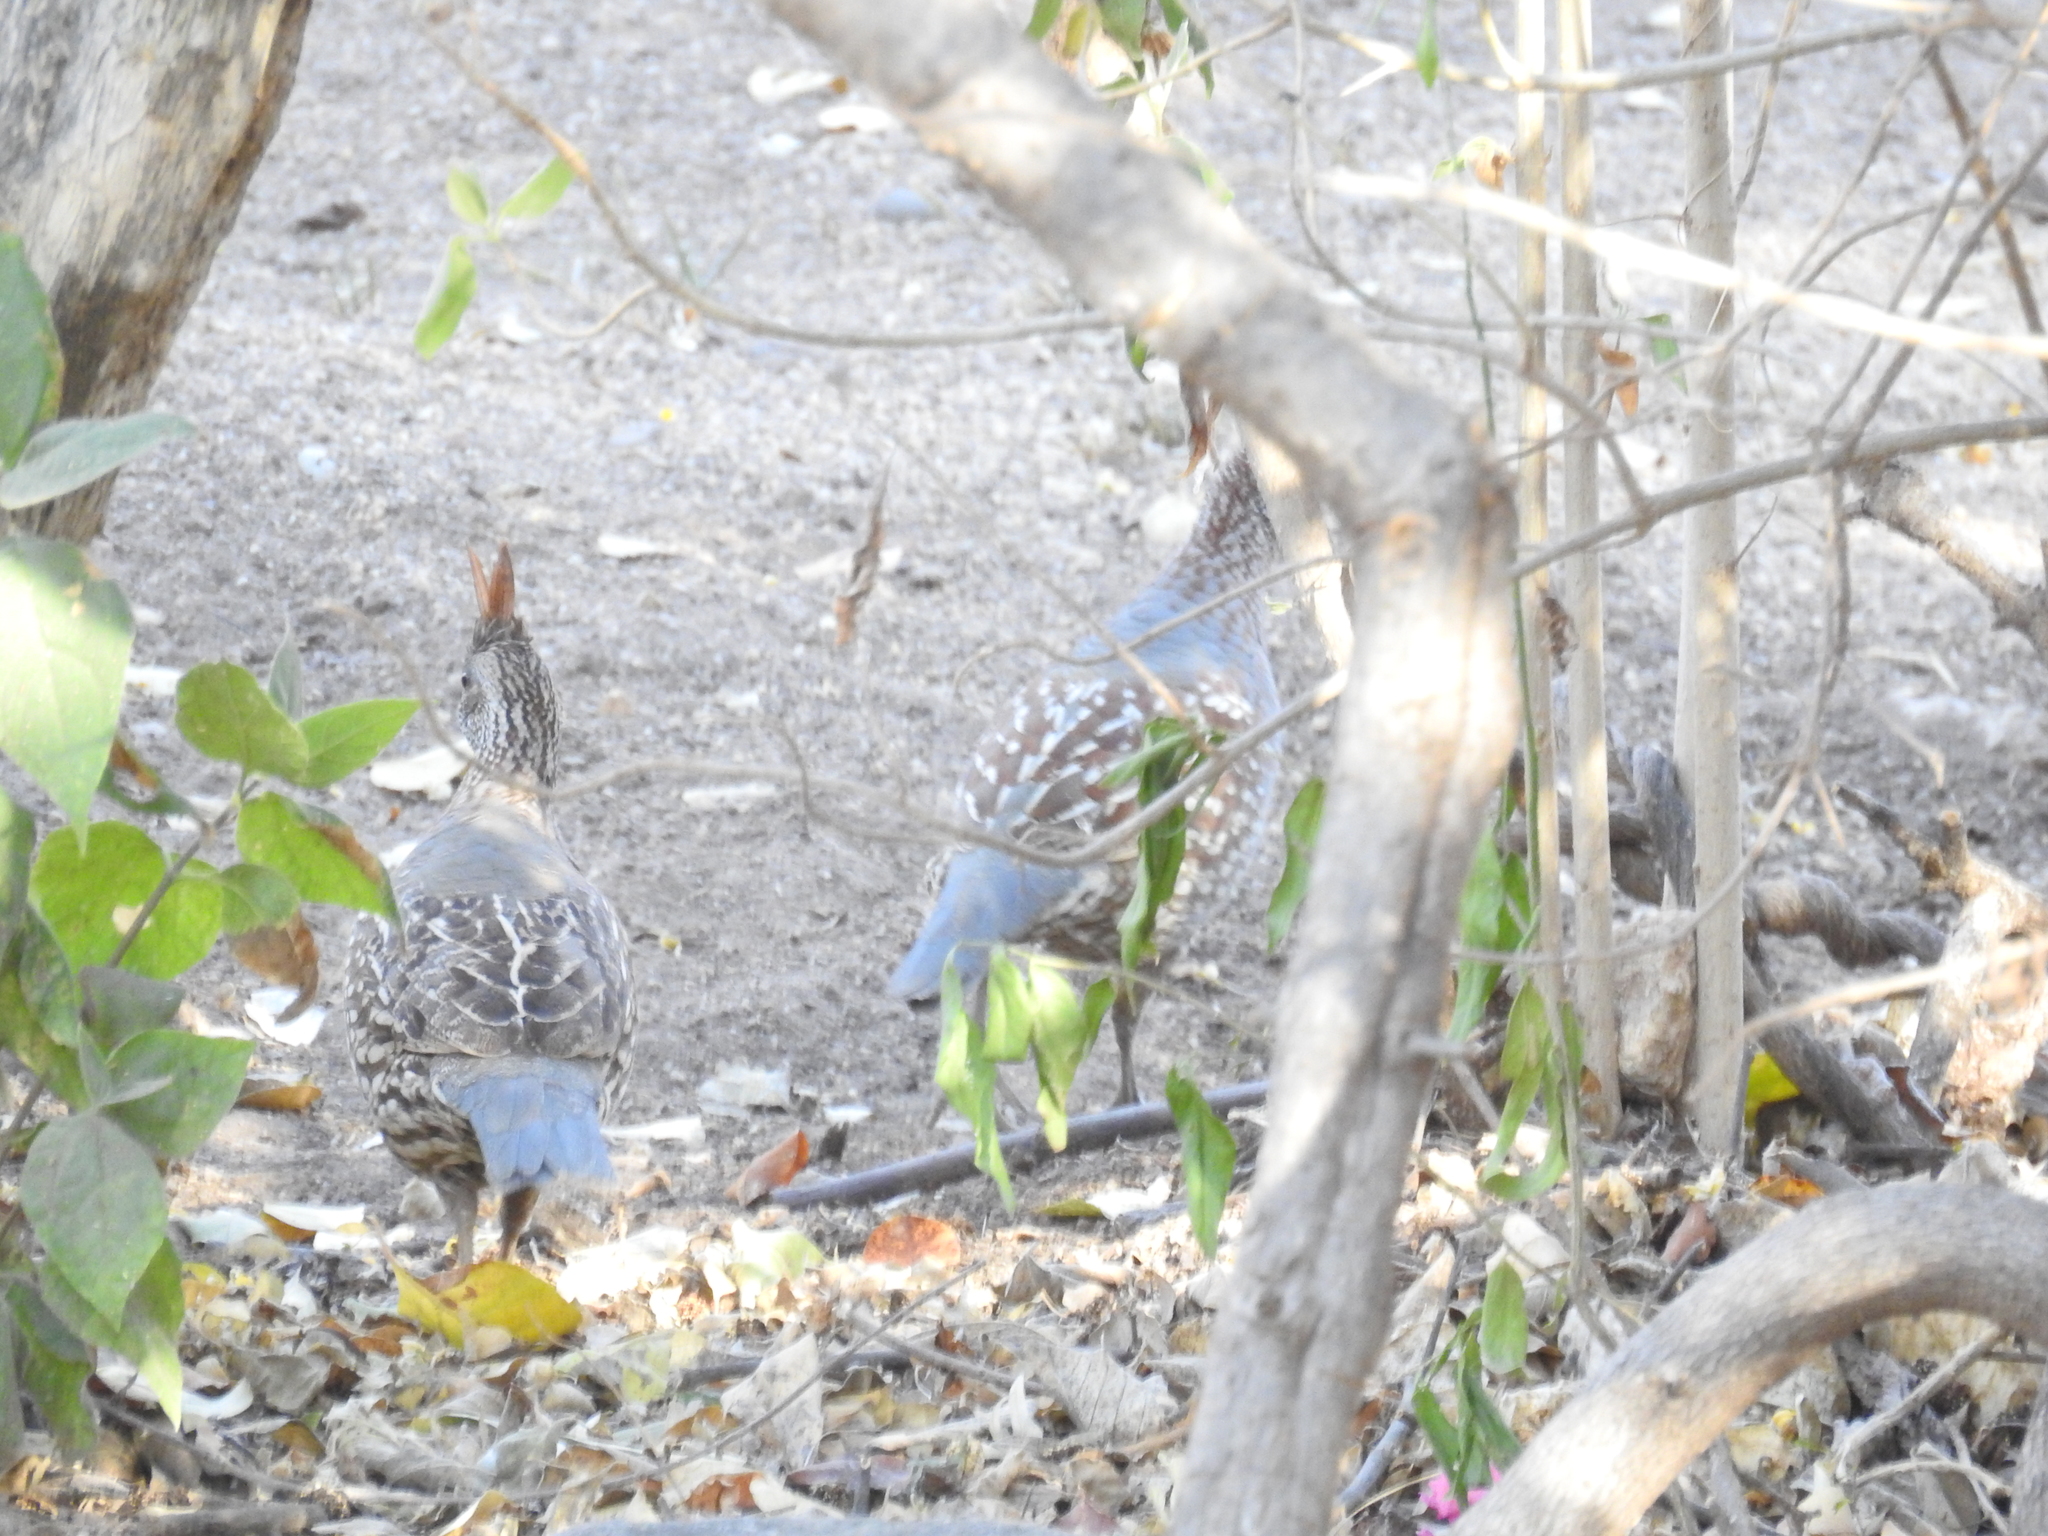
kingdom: Animalia
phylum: Chordata
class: Aves
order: Galliformes
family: Odontophoridae
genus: Callipepla
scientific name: Callipepla douglasii
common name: Elegant quail
